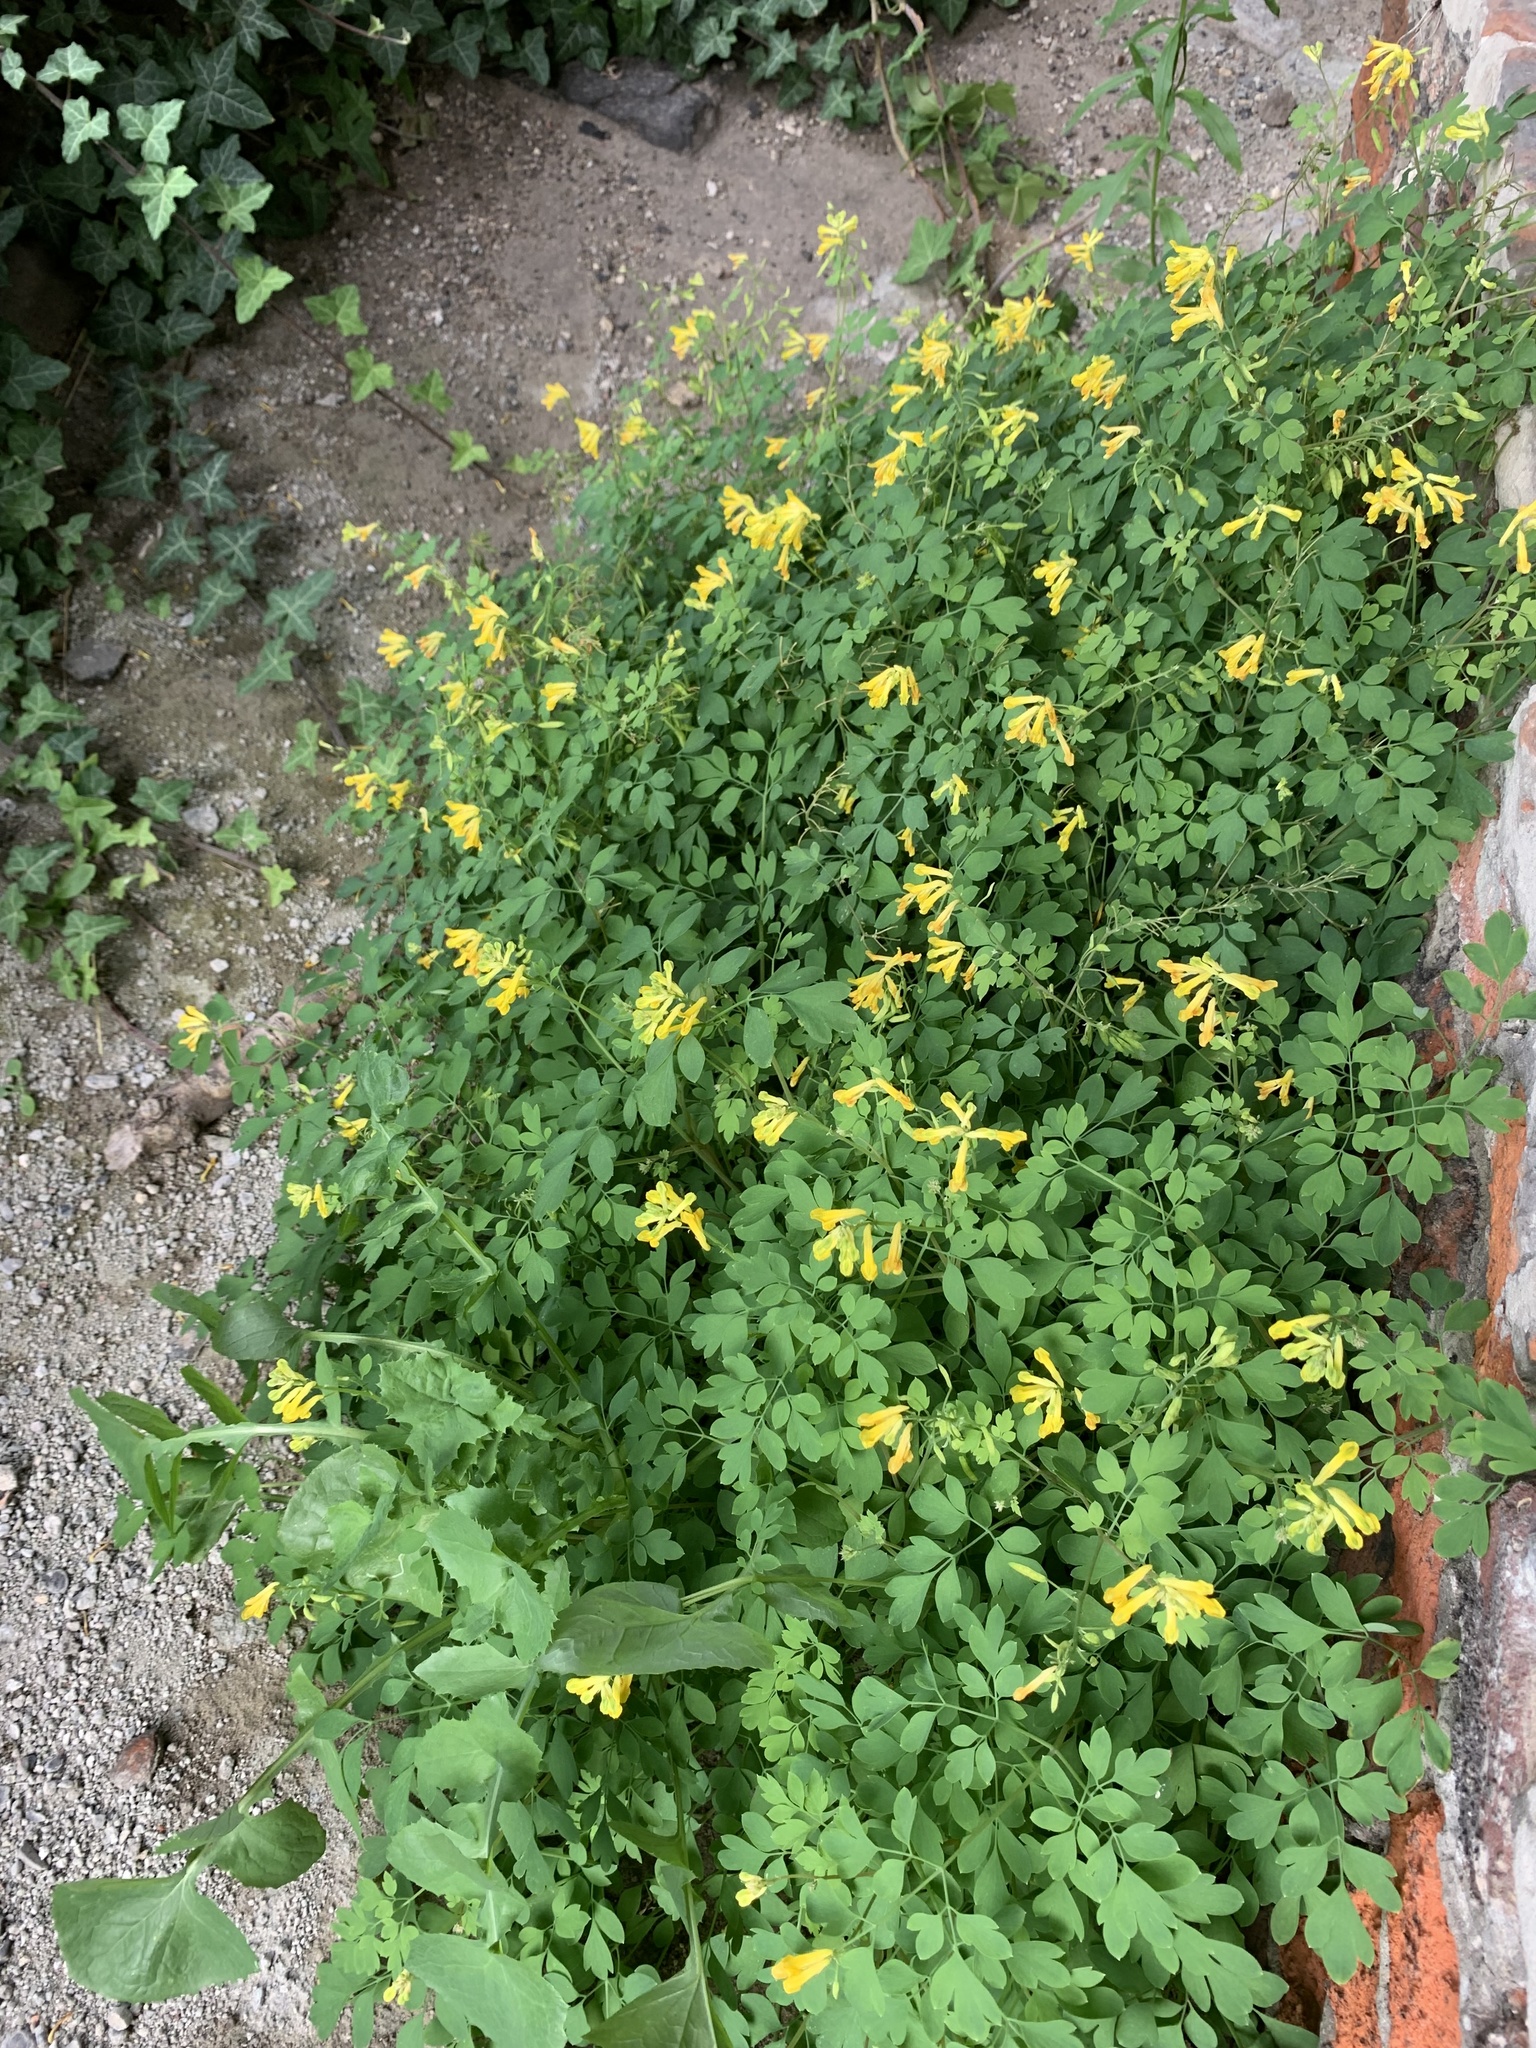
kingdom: Plantae
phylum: Tracheophyta
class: Magnoliopsida
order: Ranunculales
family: Papaveraceae
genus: Pseudofumaria
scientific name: Pseudofumaria lutea
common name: Yellow corydalis
